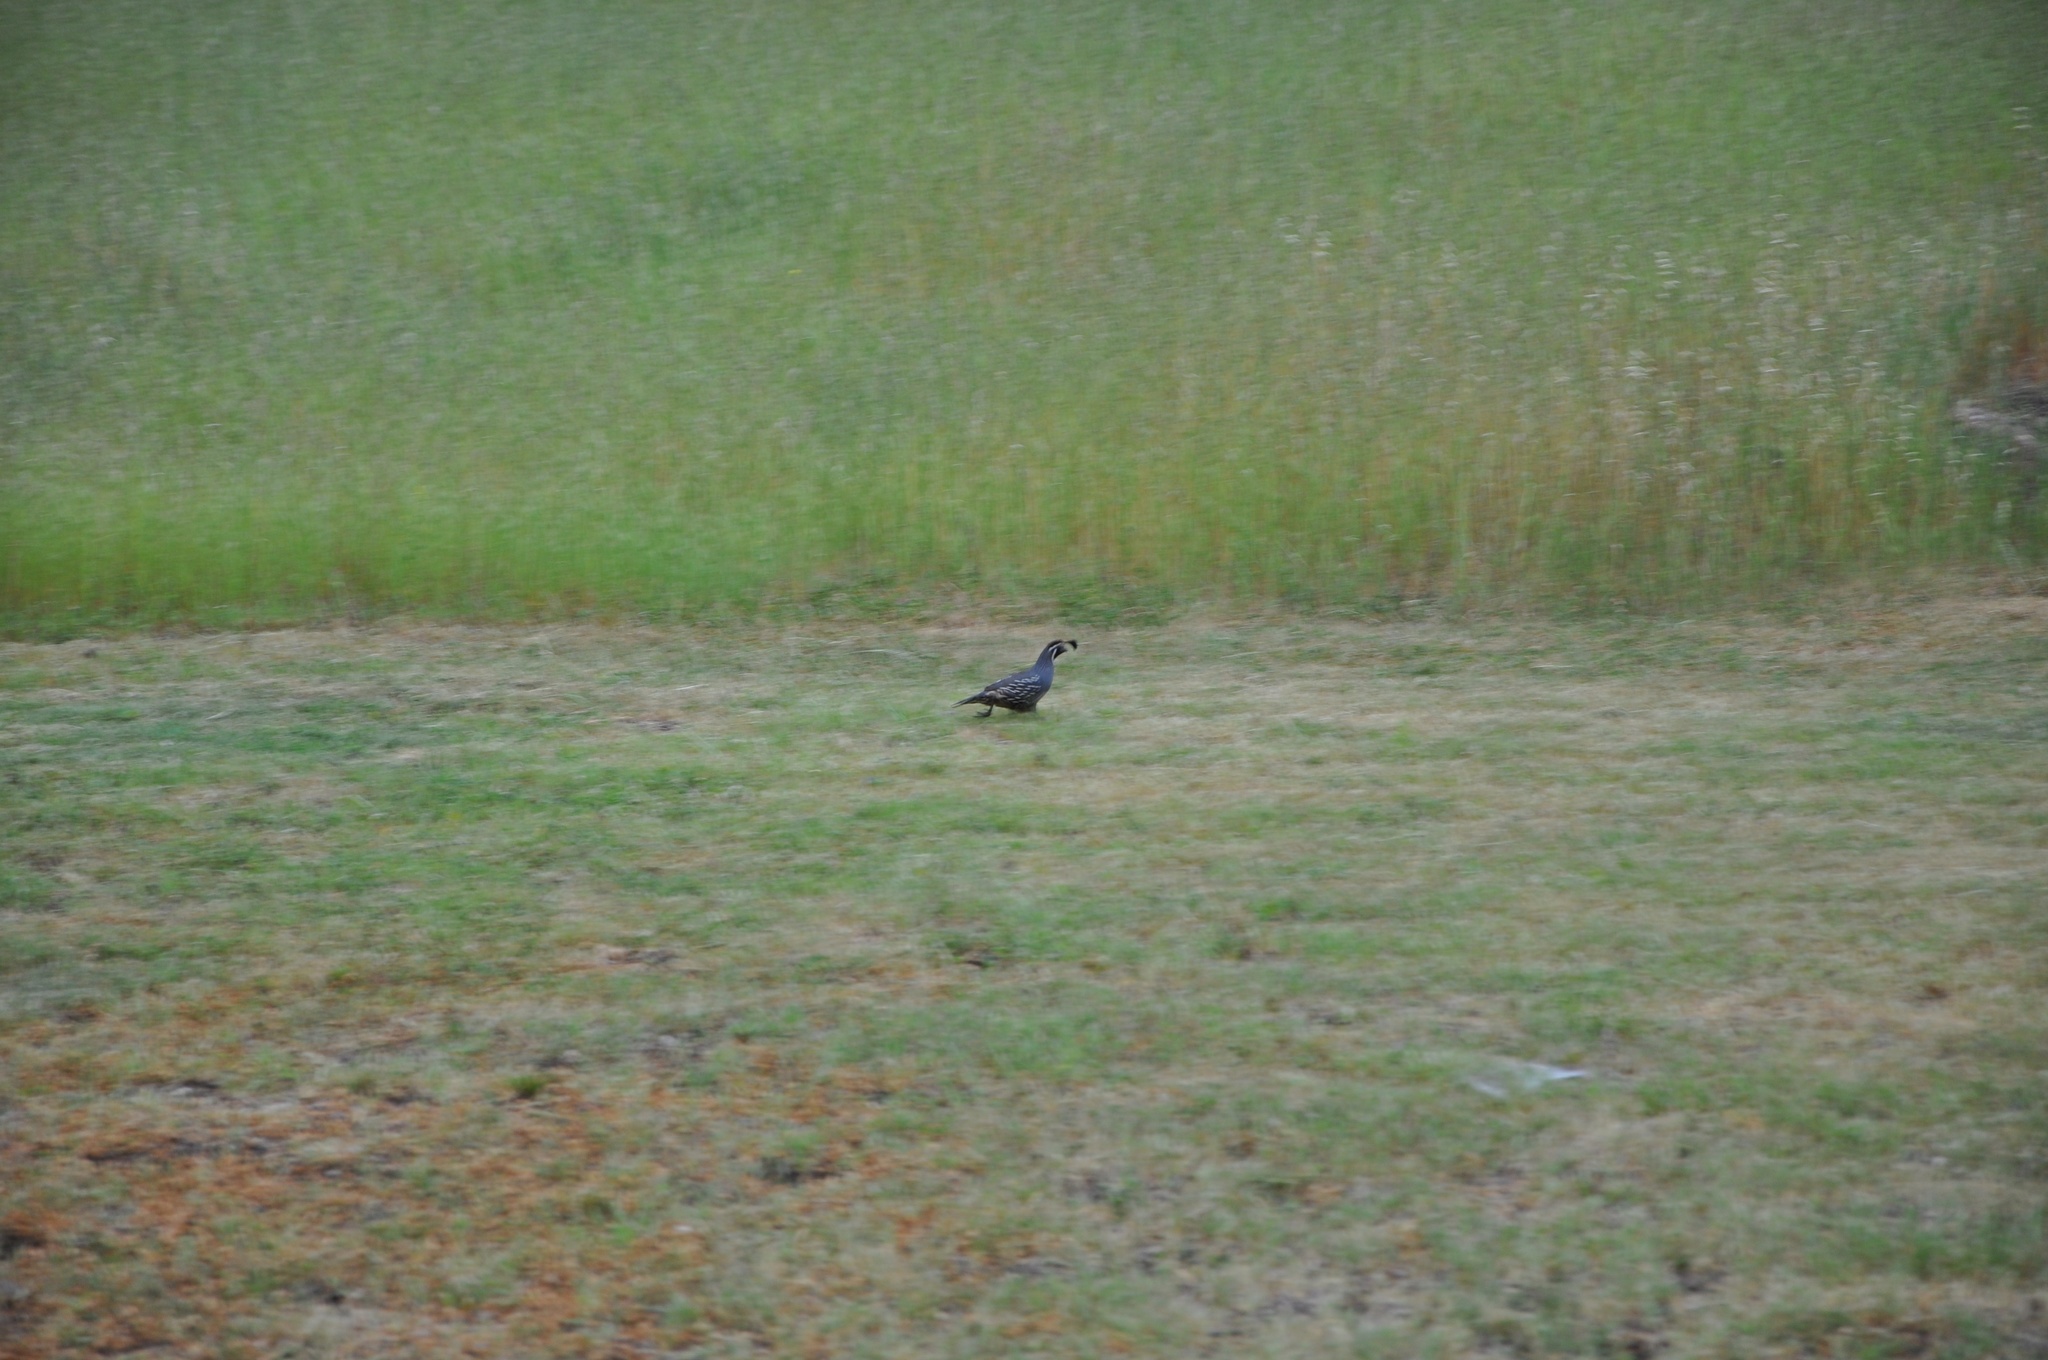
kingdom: Animalia
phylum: Chordata
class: Aves
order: Galliformes
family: Odontophoridae
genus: Callipepla
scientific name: Callipepla californica
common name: California quail
